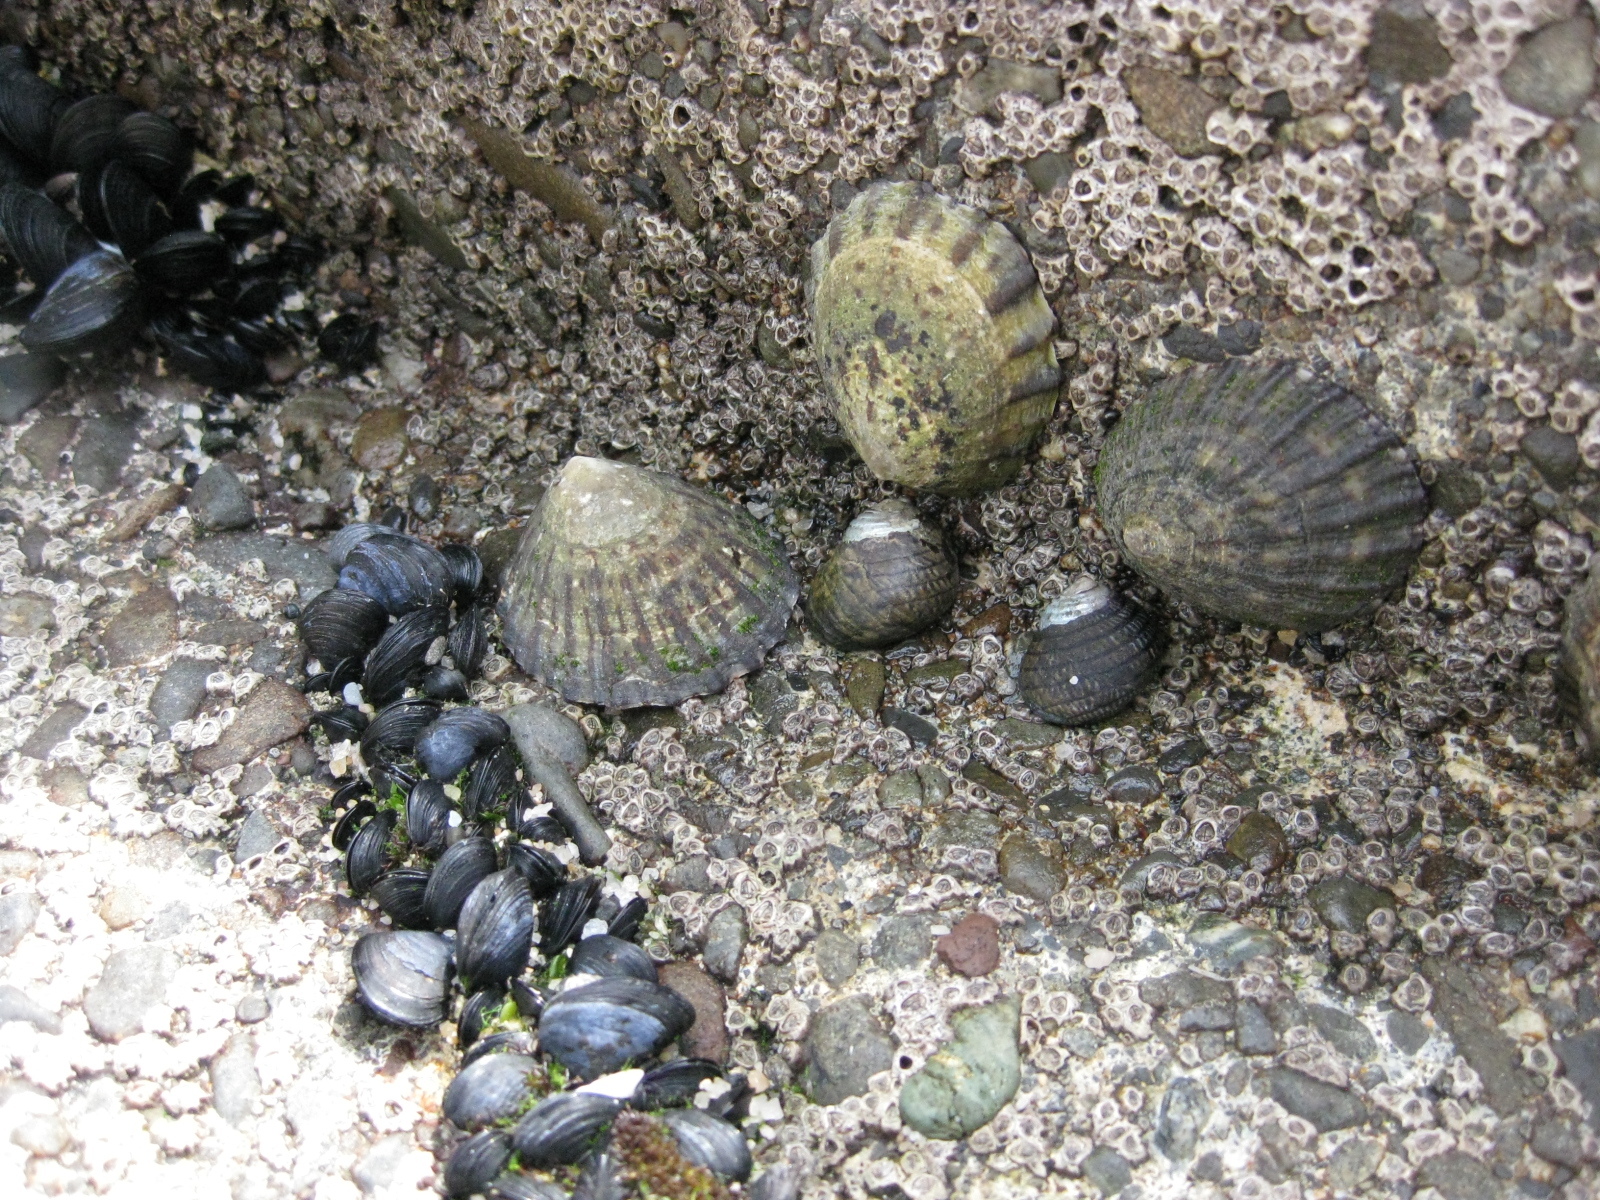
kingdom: Animalia
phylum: Mollusca
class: Gastropoda
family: Nacellidae
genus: Cellana
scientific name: Cellana radians
